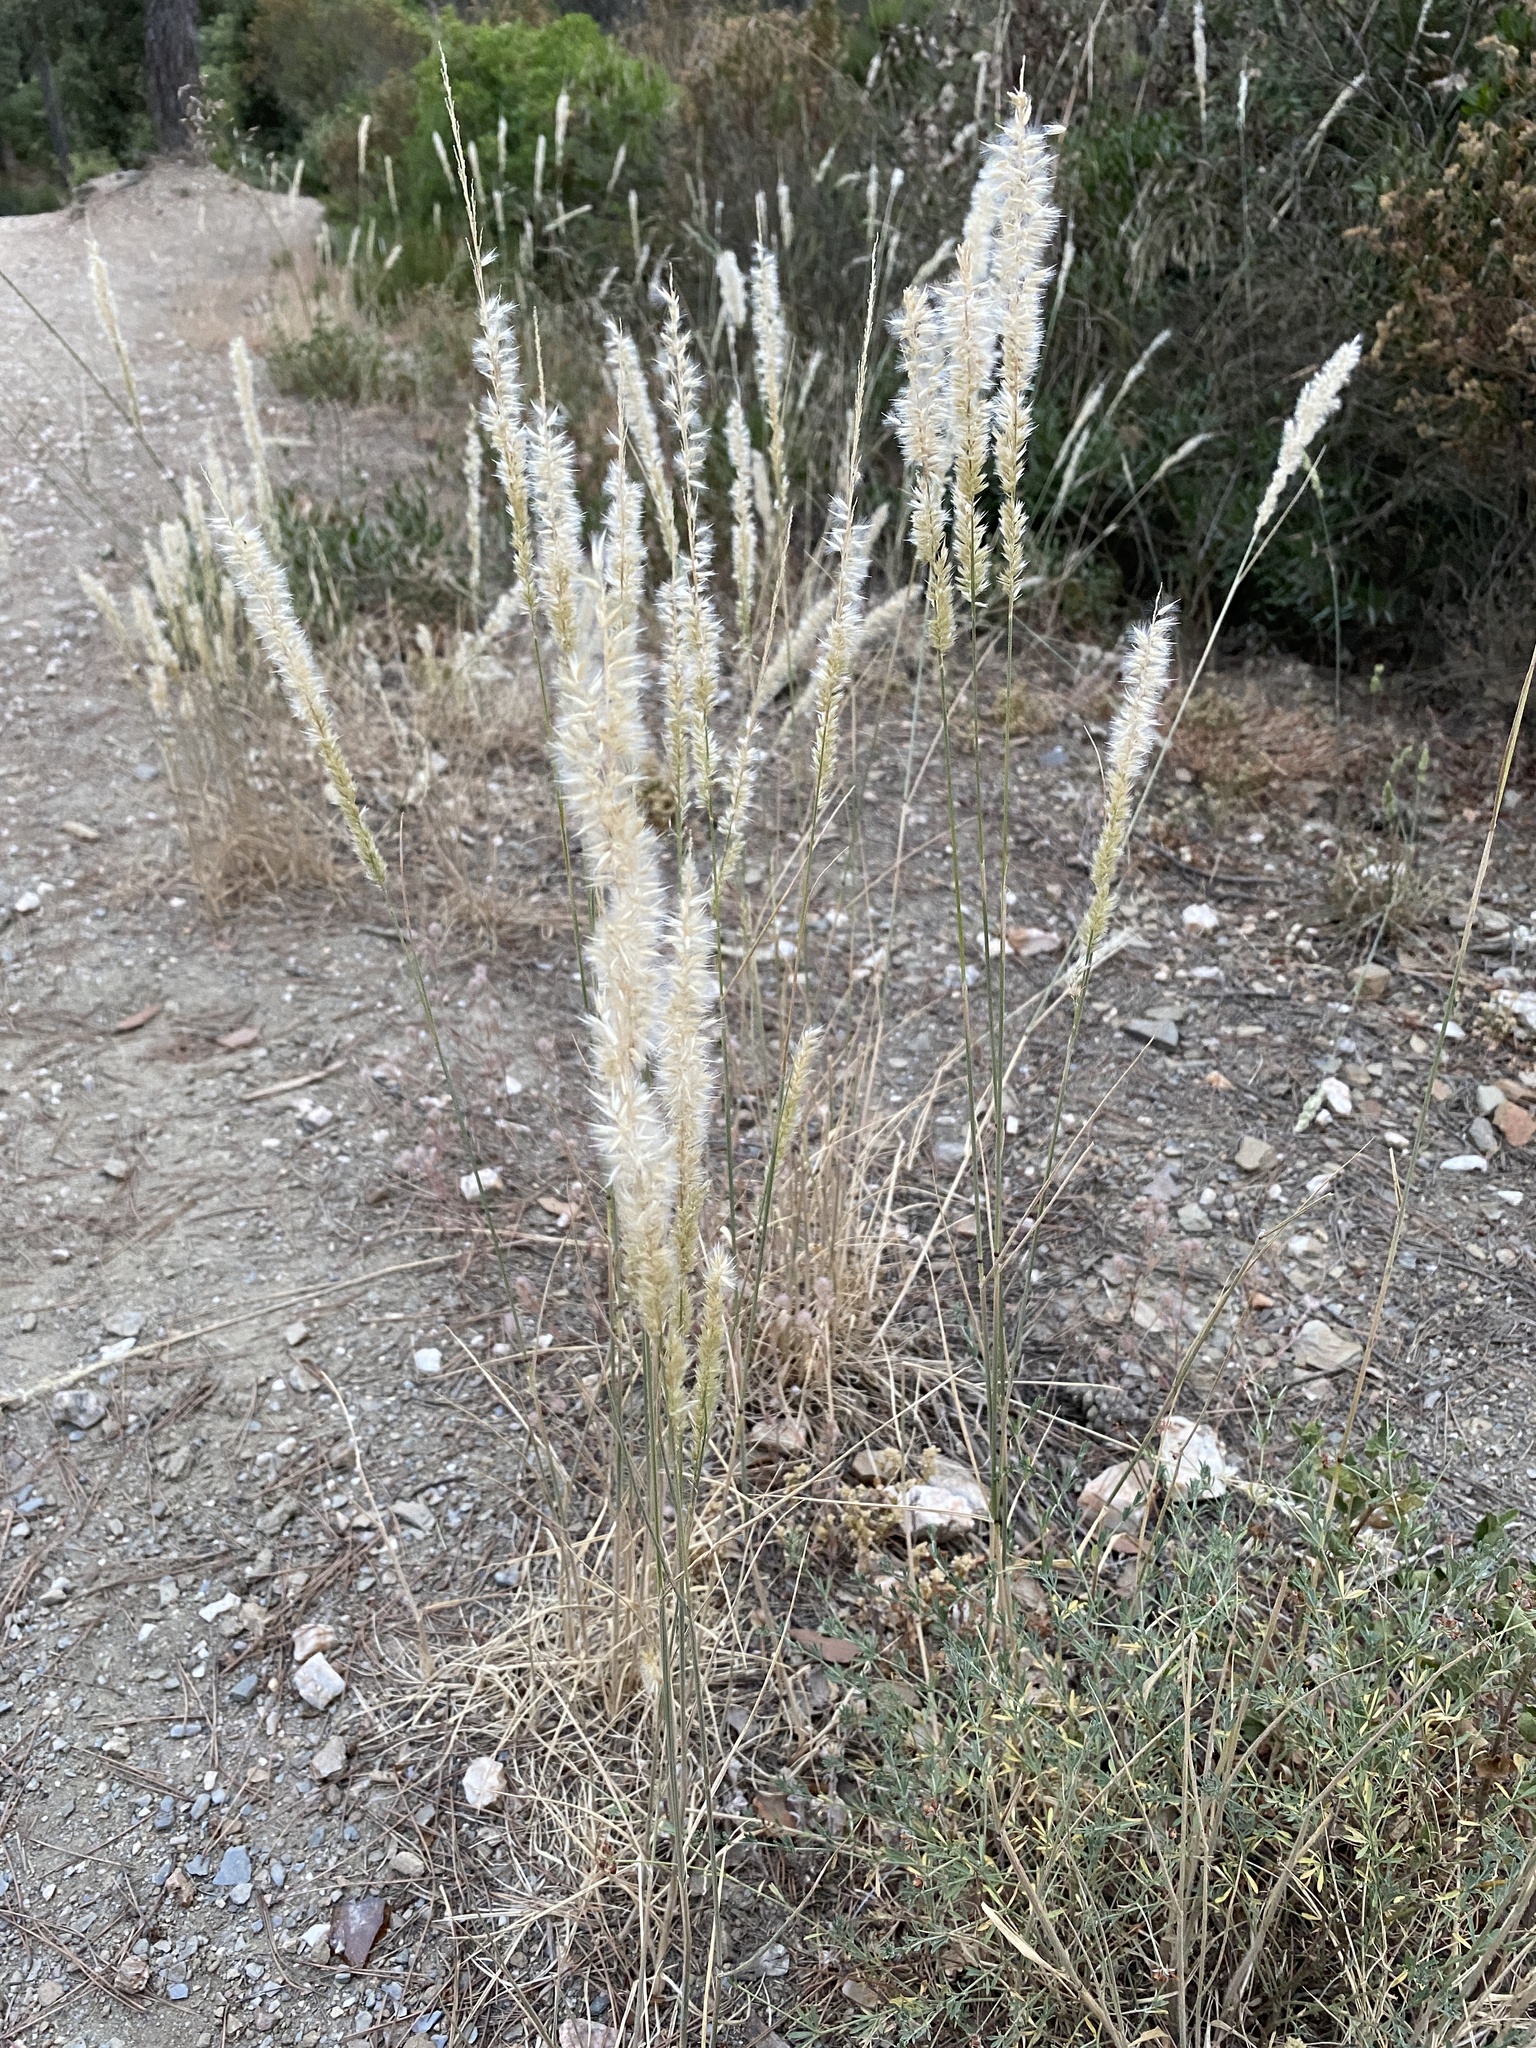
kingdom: Plantae
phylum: Tracheophyta
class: Liliopsida
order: Poales
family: Poaceae
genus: Melica
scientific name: Melica ciliata
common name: Hairy melicgrass
